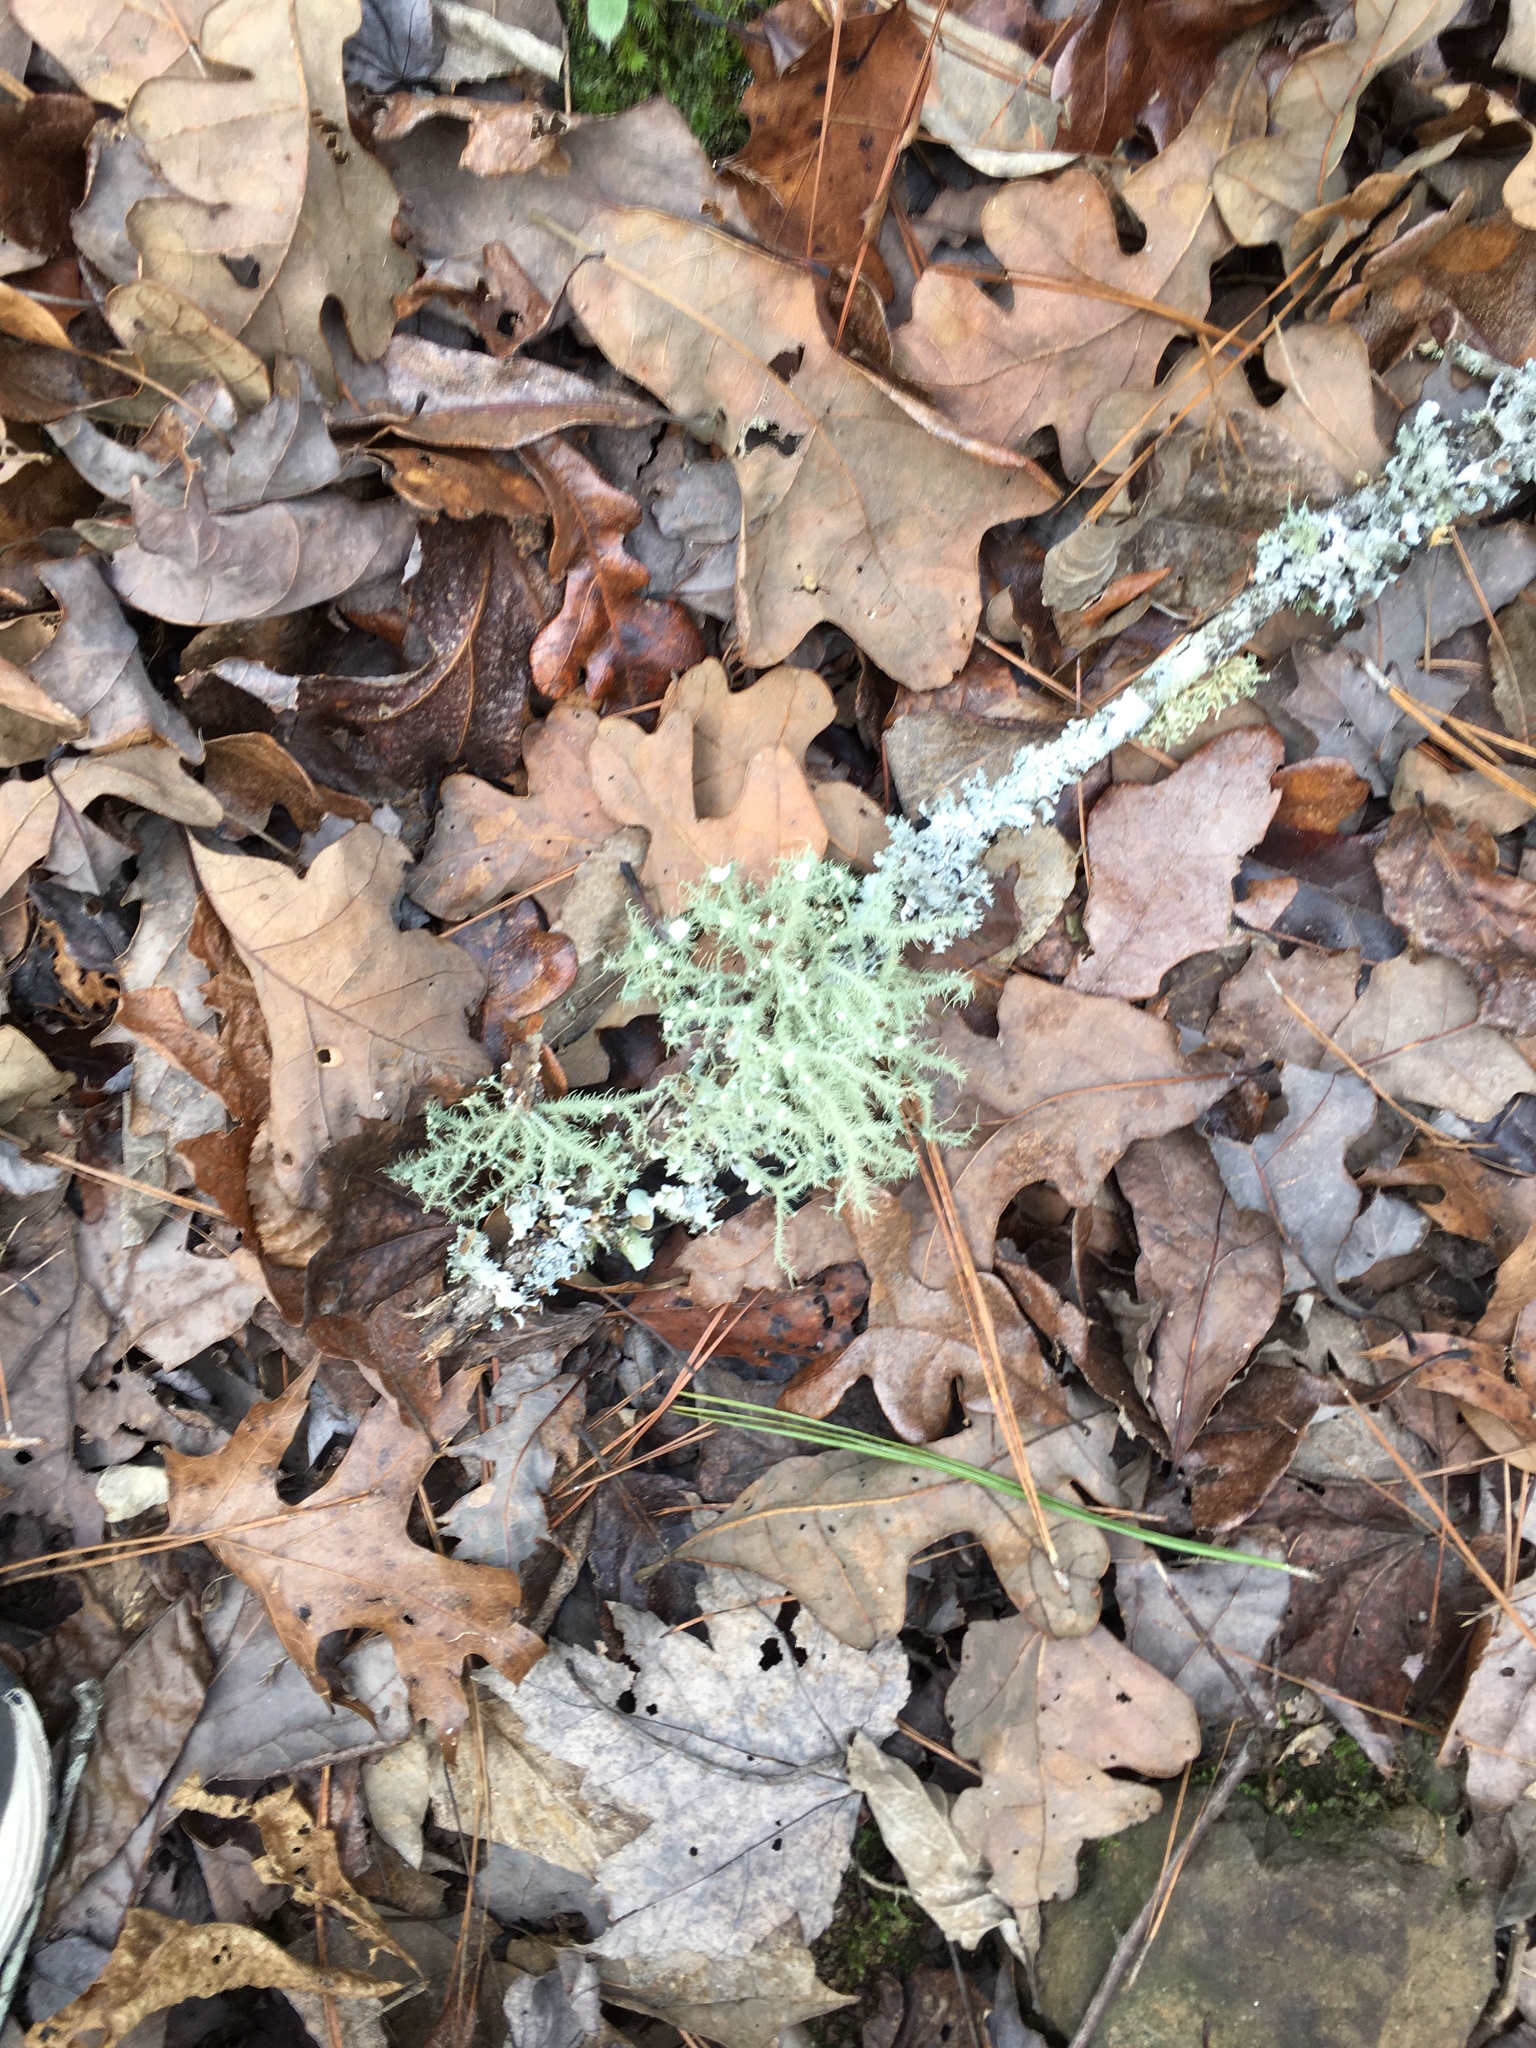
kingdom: Fungi
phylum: Ascomycota
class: Lecanoromycetes
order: Lecanorales
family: Parmeliaceae
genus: Usnea
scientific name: Usnea strigosa
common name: Bushy beard lichen
